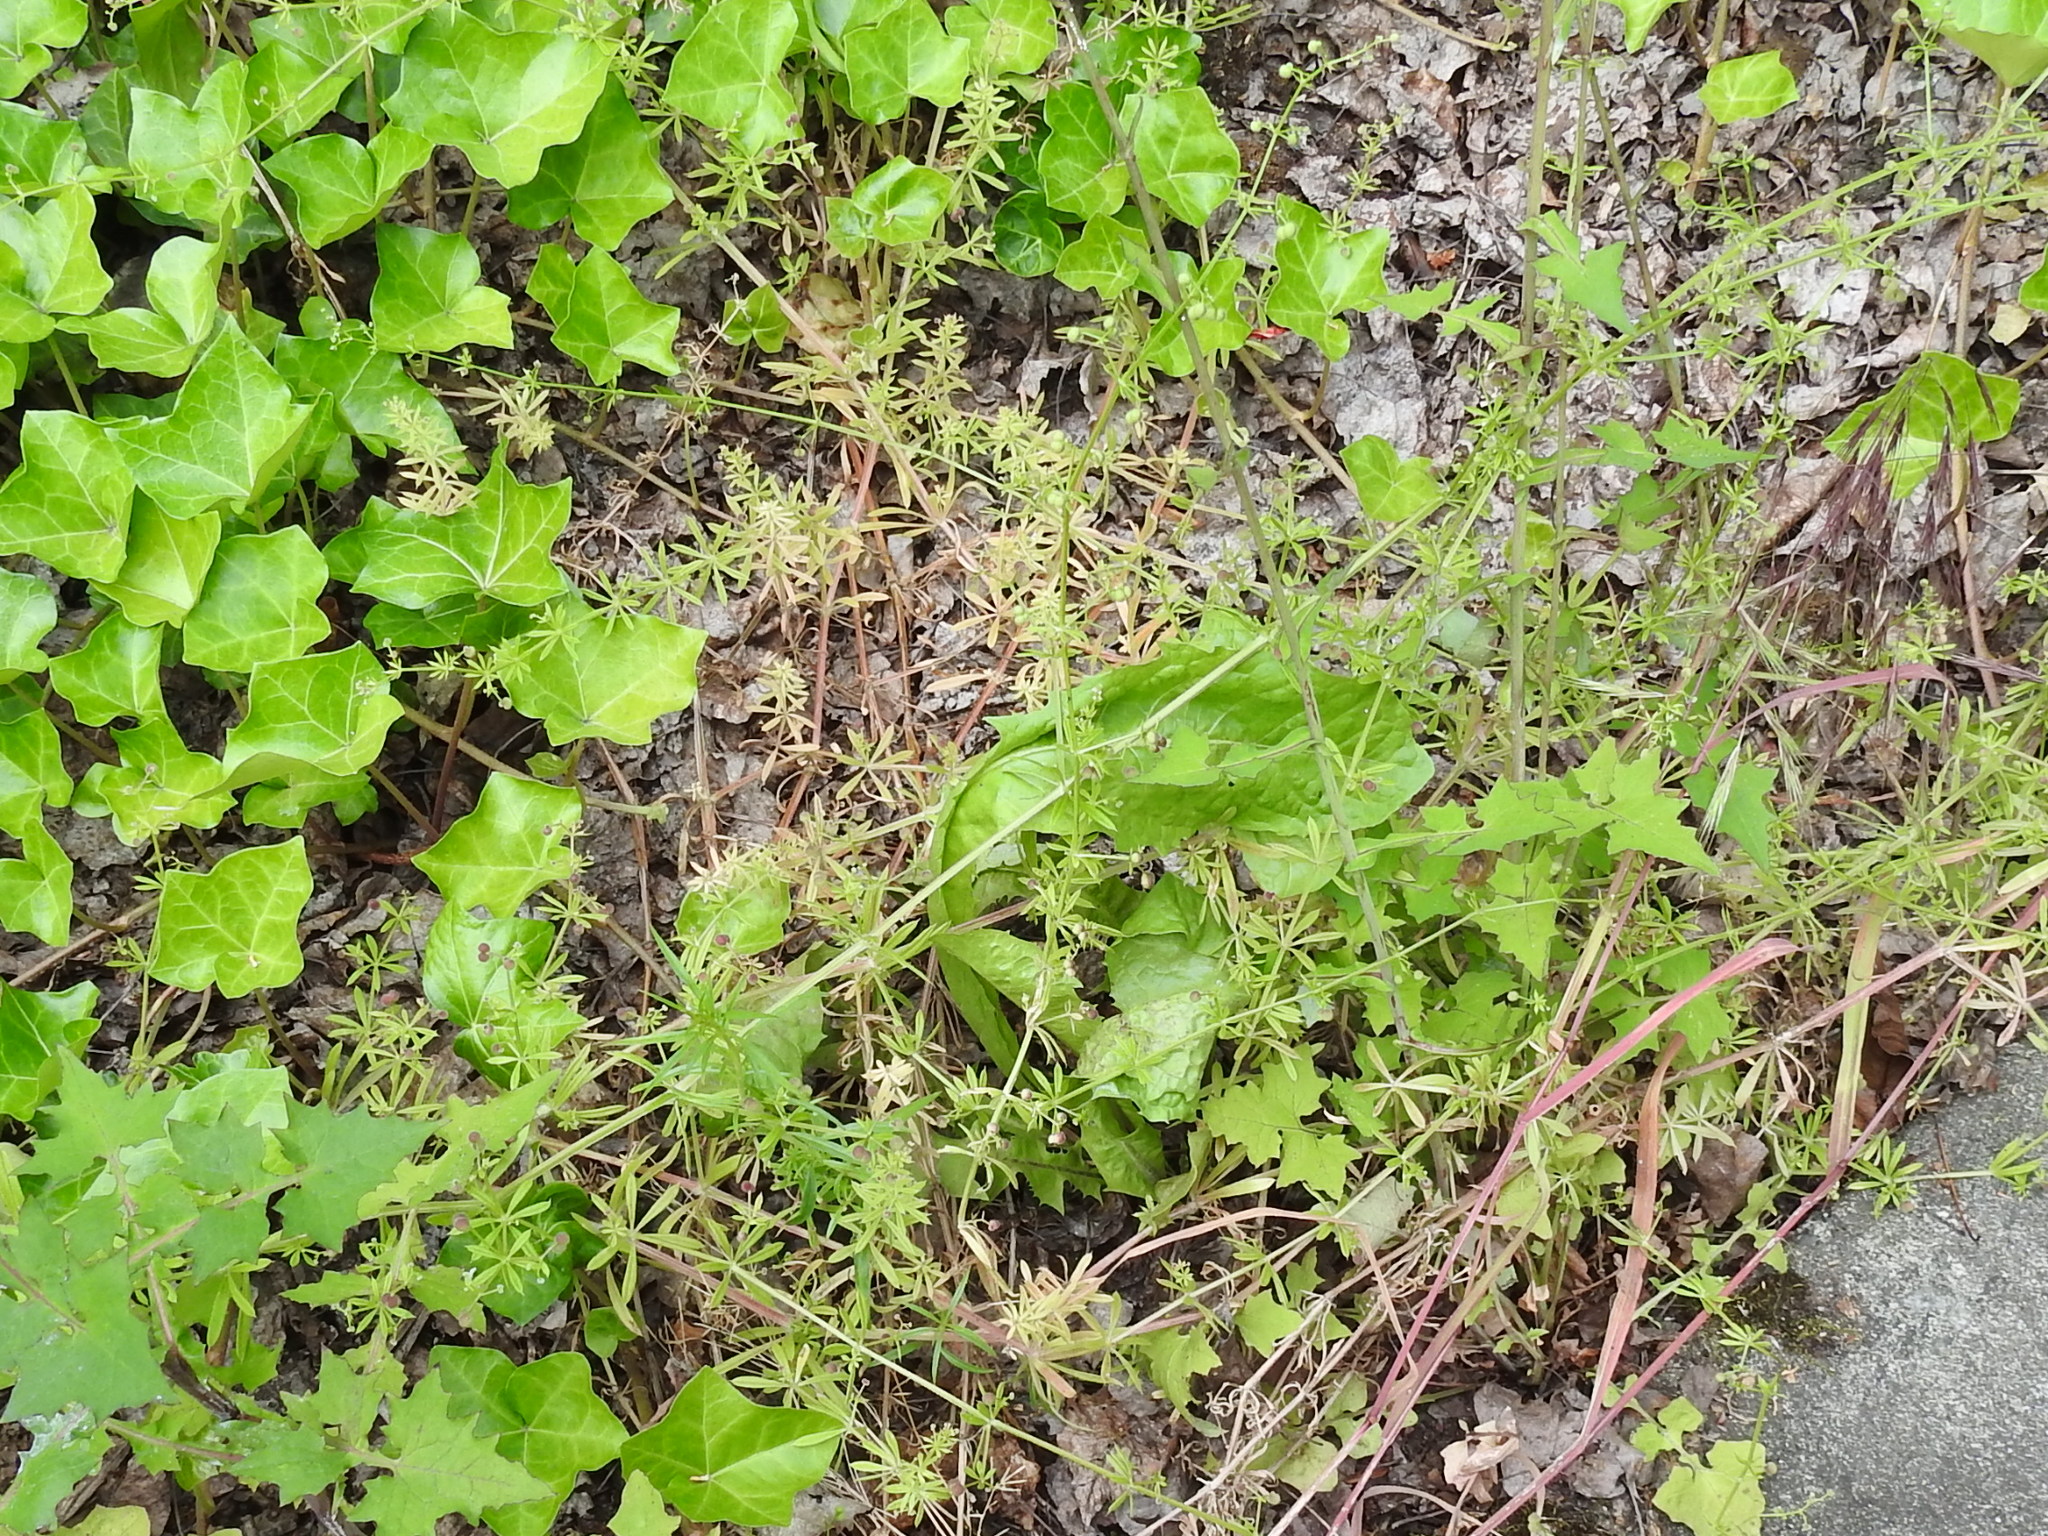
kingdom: Plantae
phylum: Tracheophyta
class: Magnoliopsida
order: Gentianales
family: Rubiaceae
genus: Galium
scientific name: Galium aparine
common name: Cleavers
